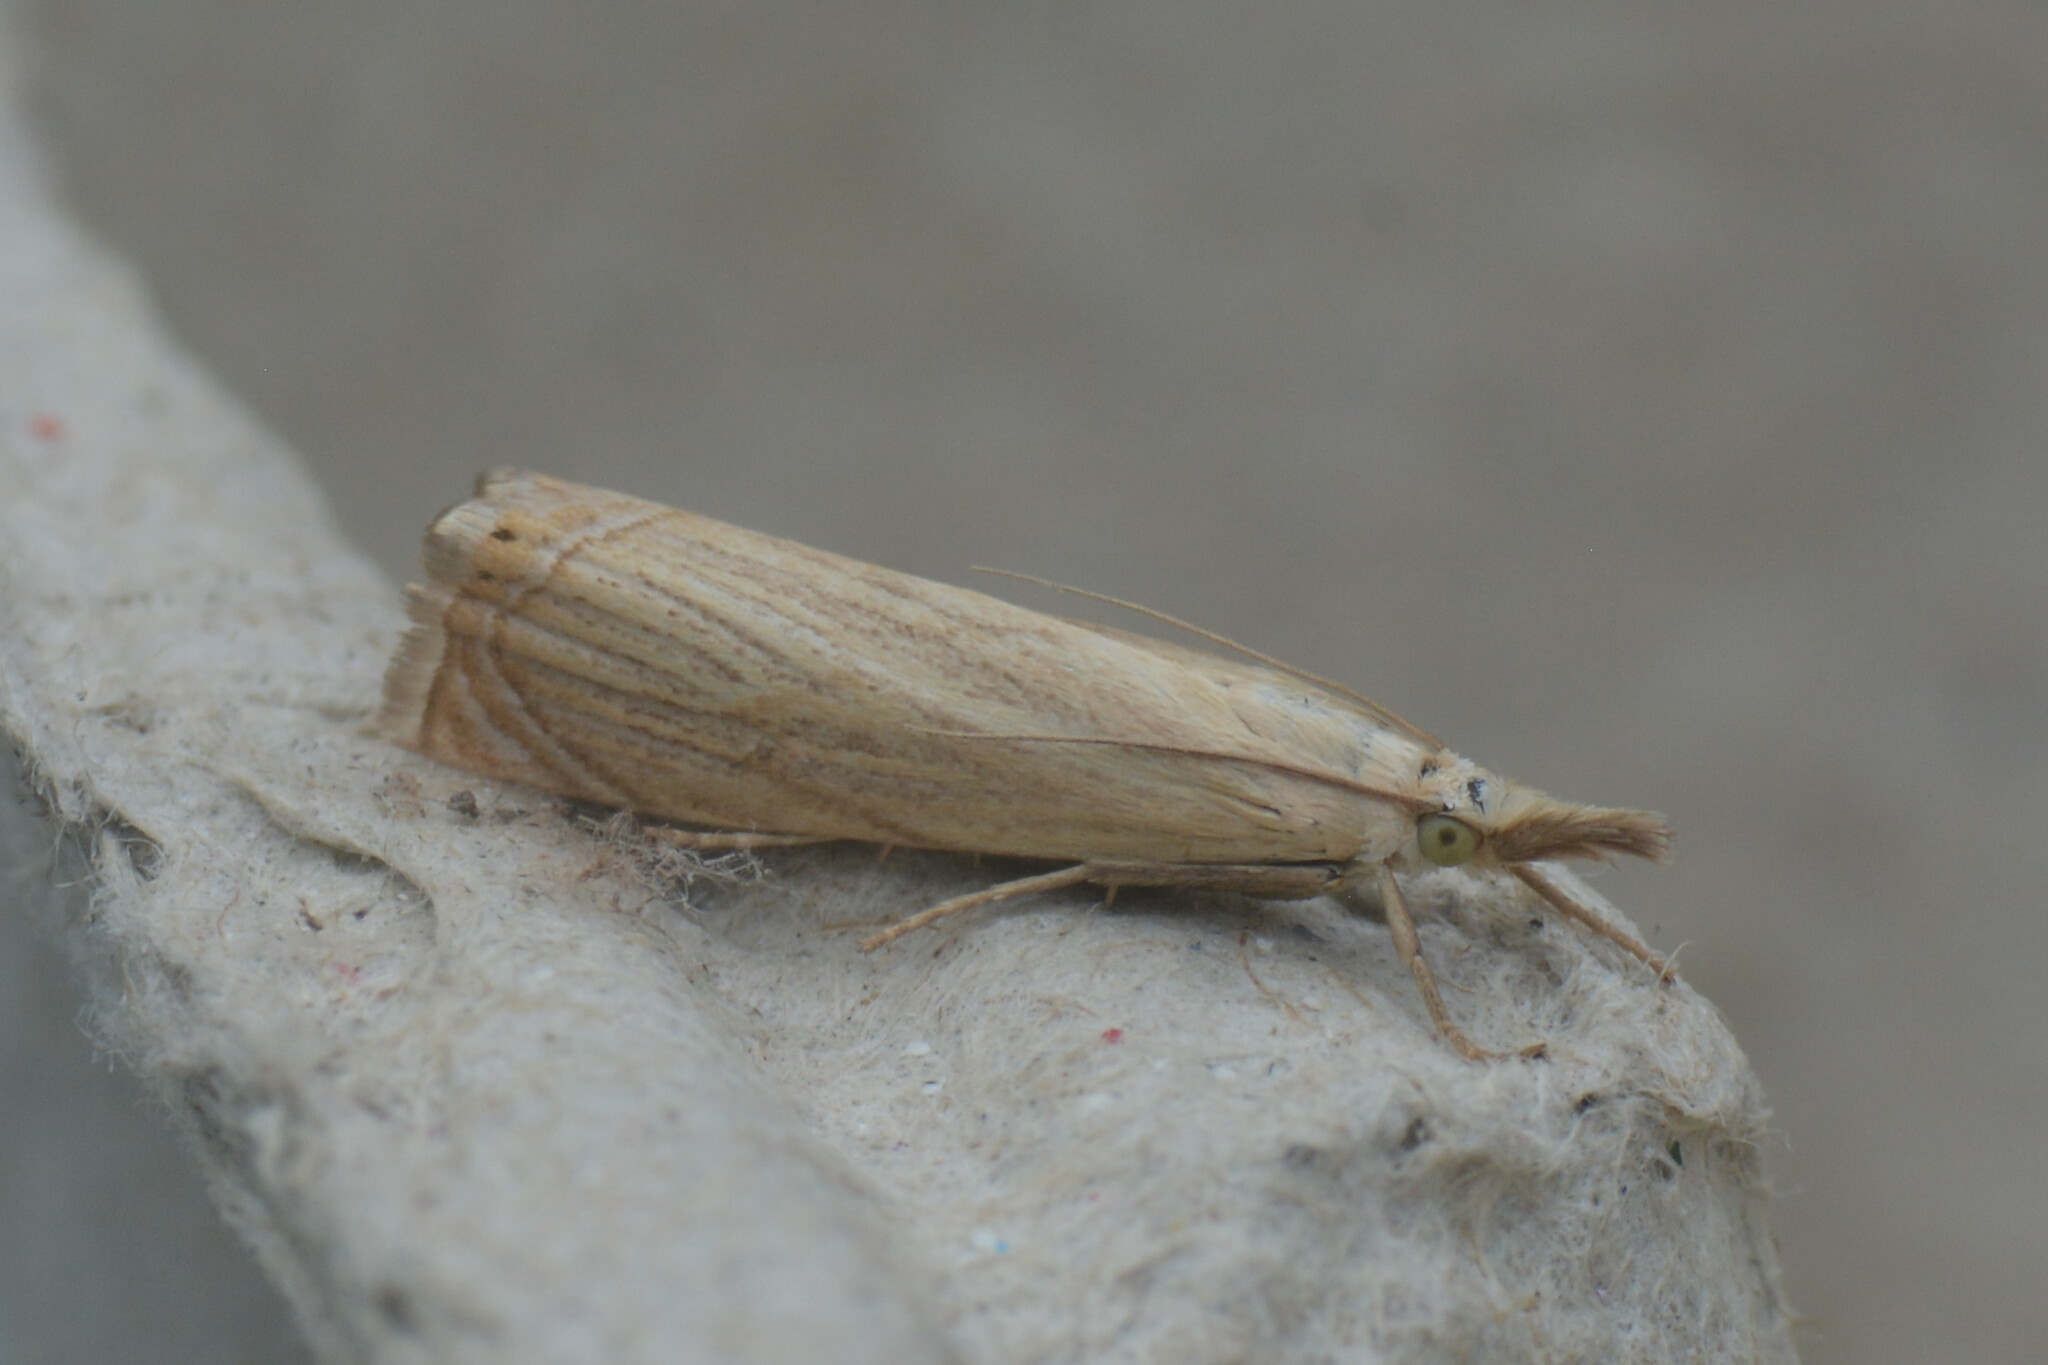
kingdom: Animalia
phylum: Arthropoda
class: Insecta
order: Lepidoptera
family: Crambidae
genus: Chrysoteuchia
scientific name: Chrysoteuchia culmella
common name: Garden grass-veneer
